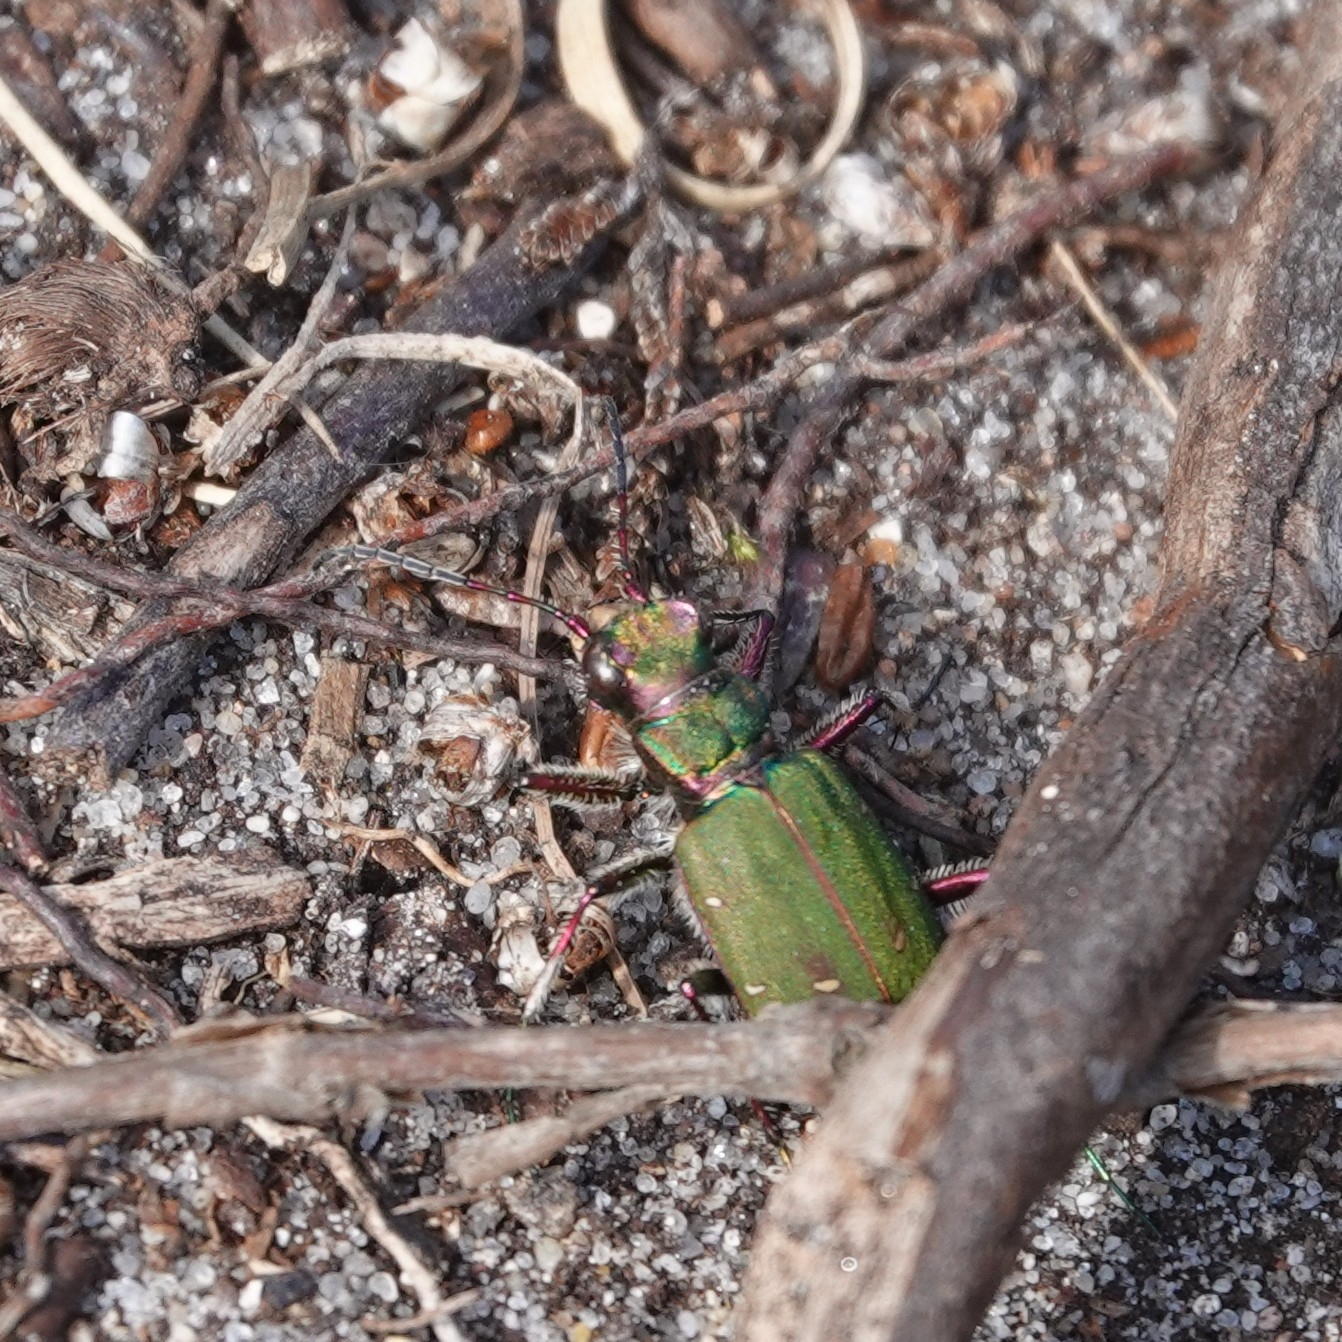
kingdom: Animalia
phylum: Arthropoda
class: Insecta
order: Coleoptera
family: Carabidae
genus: Cicindela
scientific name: Cicindela campestris
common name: Common tiger beetle
